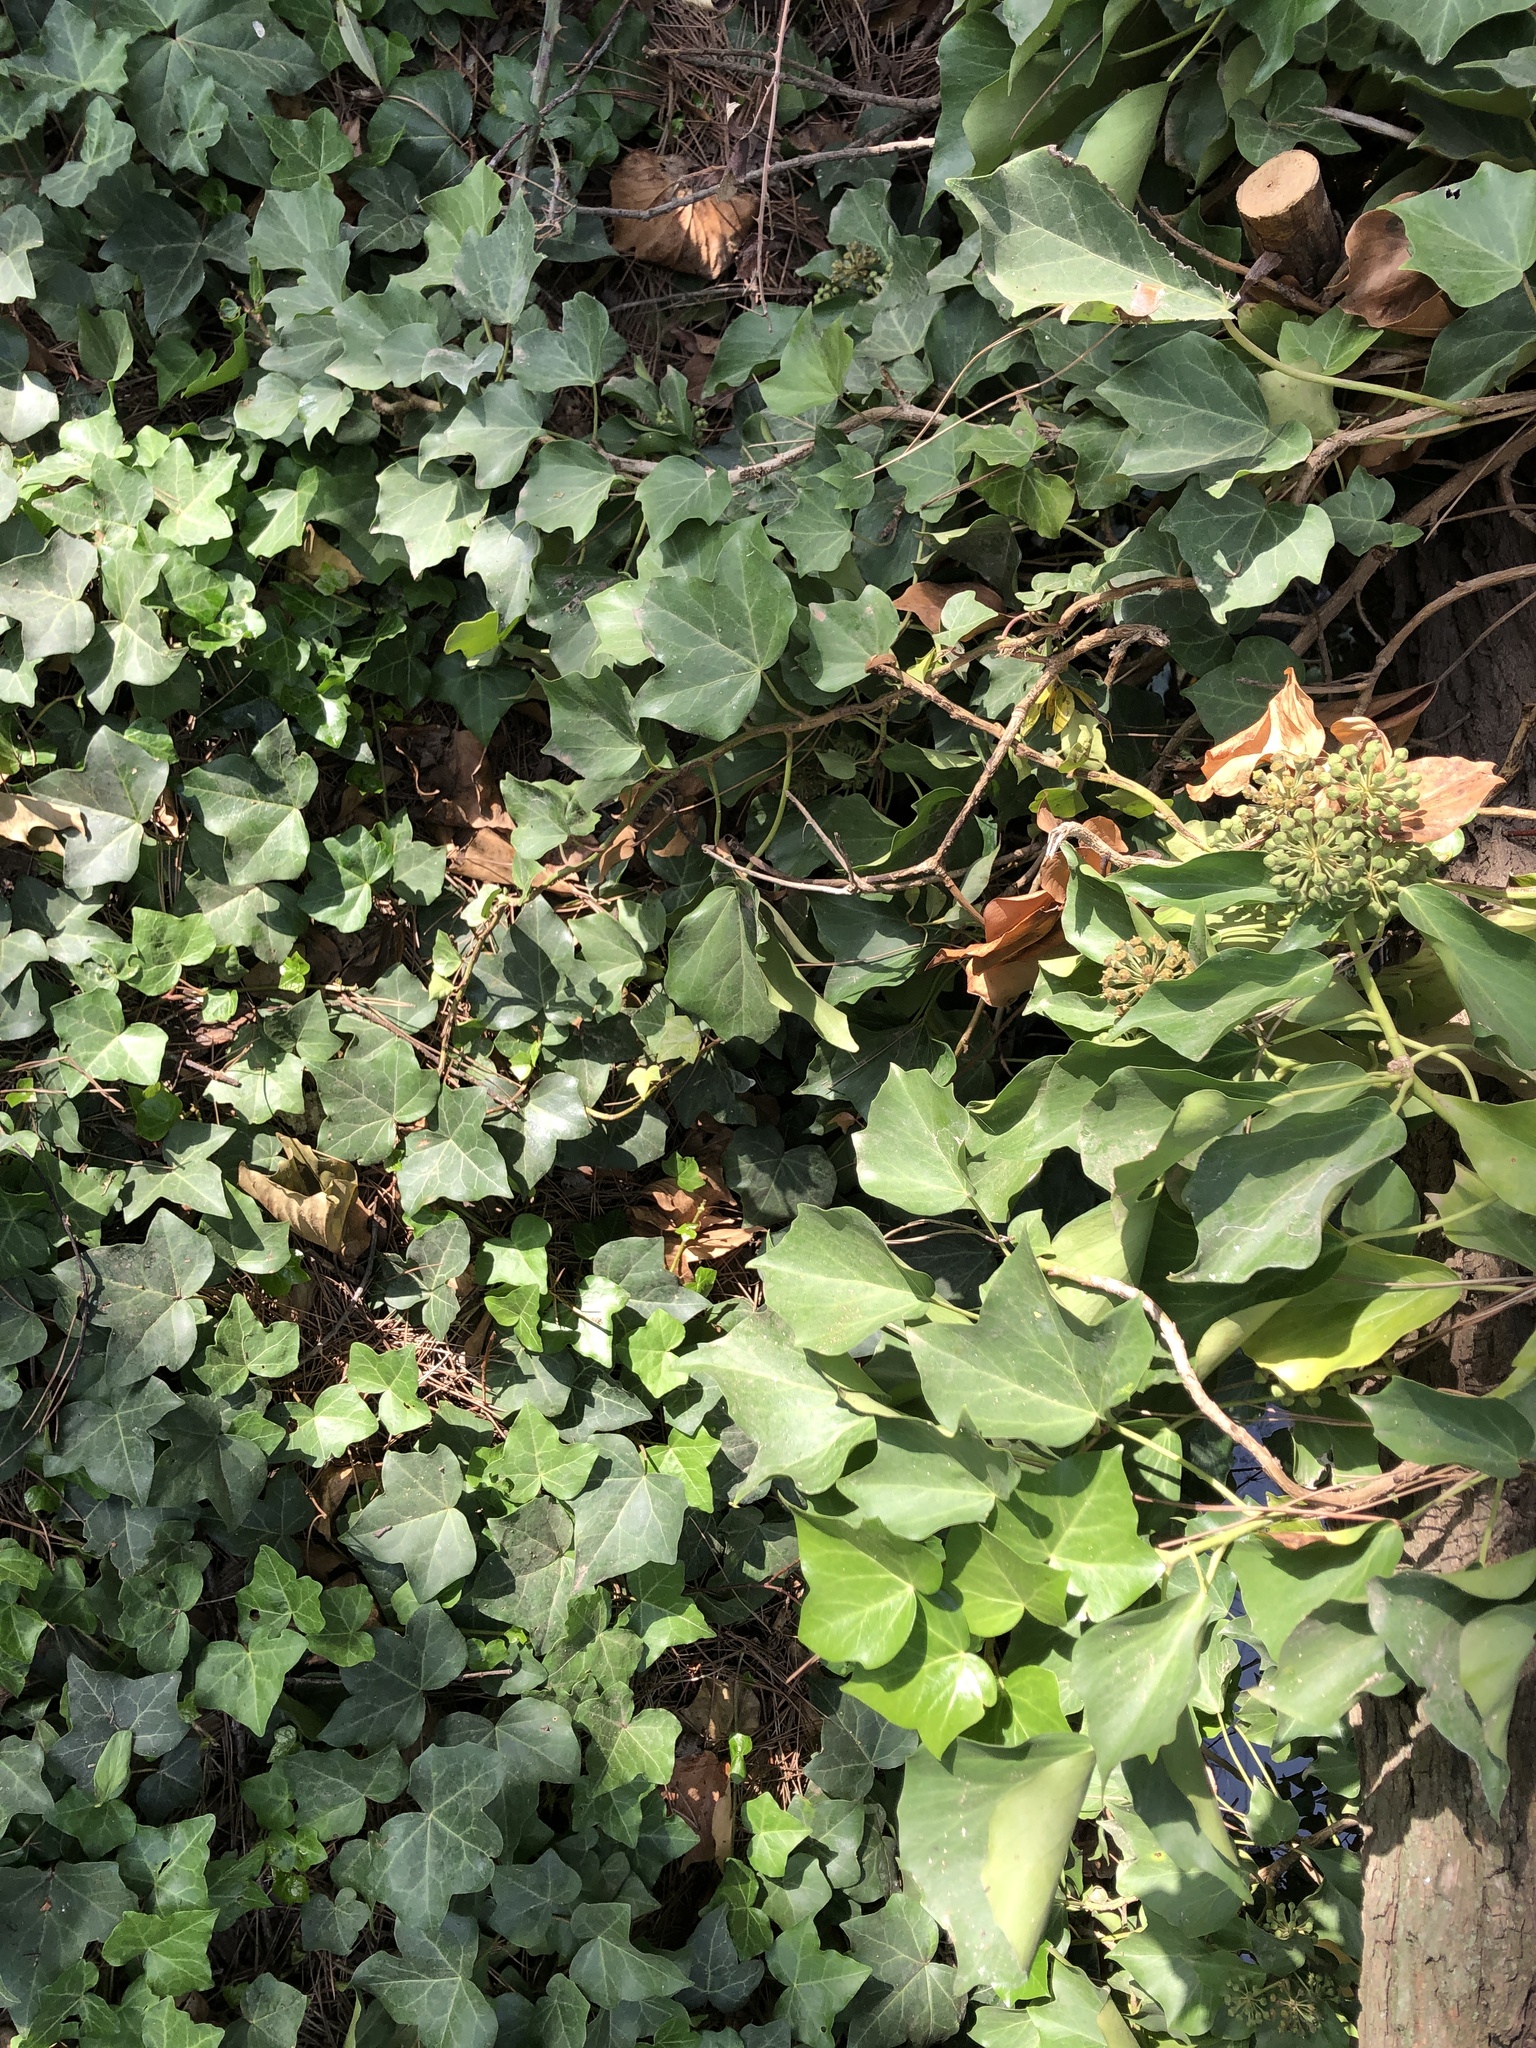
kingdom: Plantae
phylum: Tracheophyta
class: Magnoliopsida
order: Apiales
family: Araliaceae
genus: Hedera
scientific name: Hedera helix
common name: Ivy
